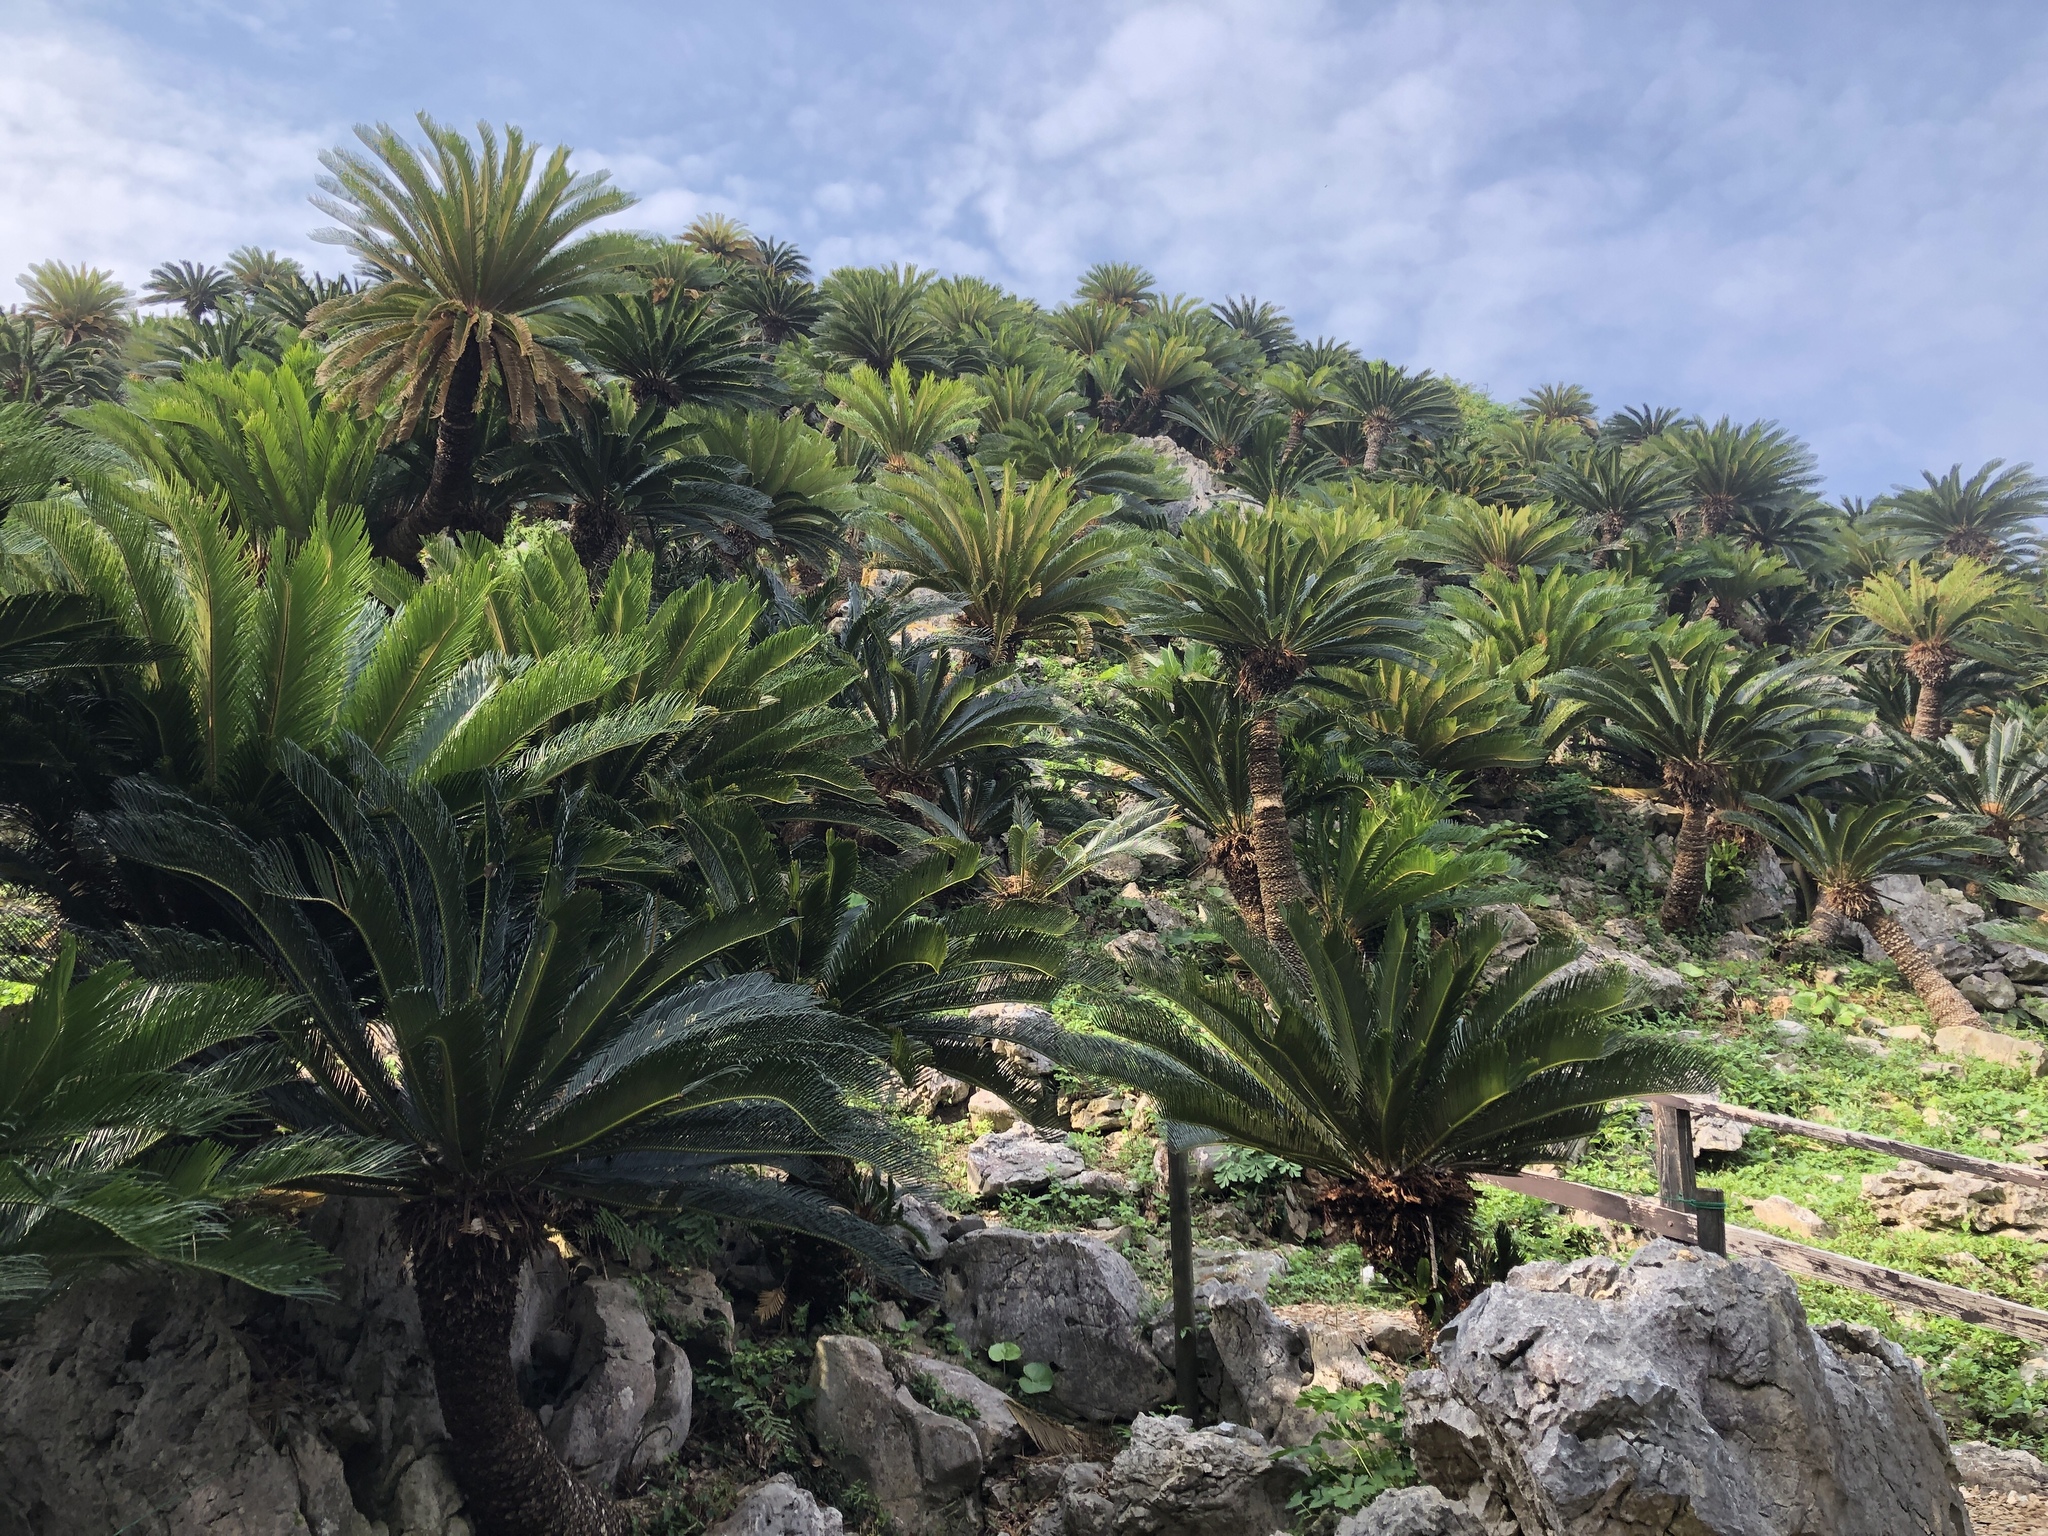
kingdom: Plantae
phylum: Tracheophyta
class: Cycadopsida
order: Cycadales
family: Cycadaceae
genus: Cycas
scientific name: Cycas revoluta
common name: Sago palm
